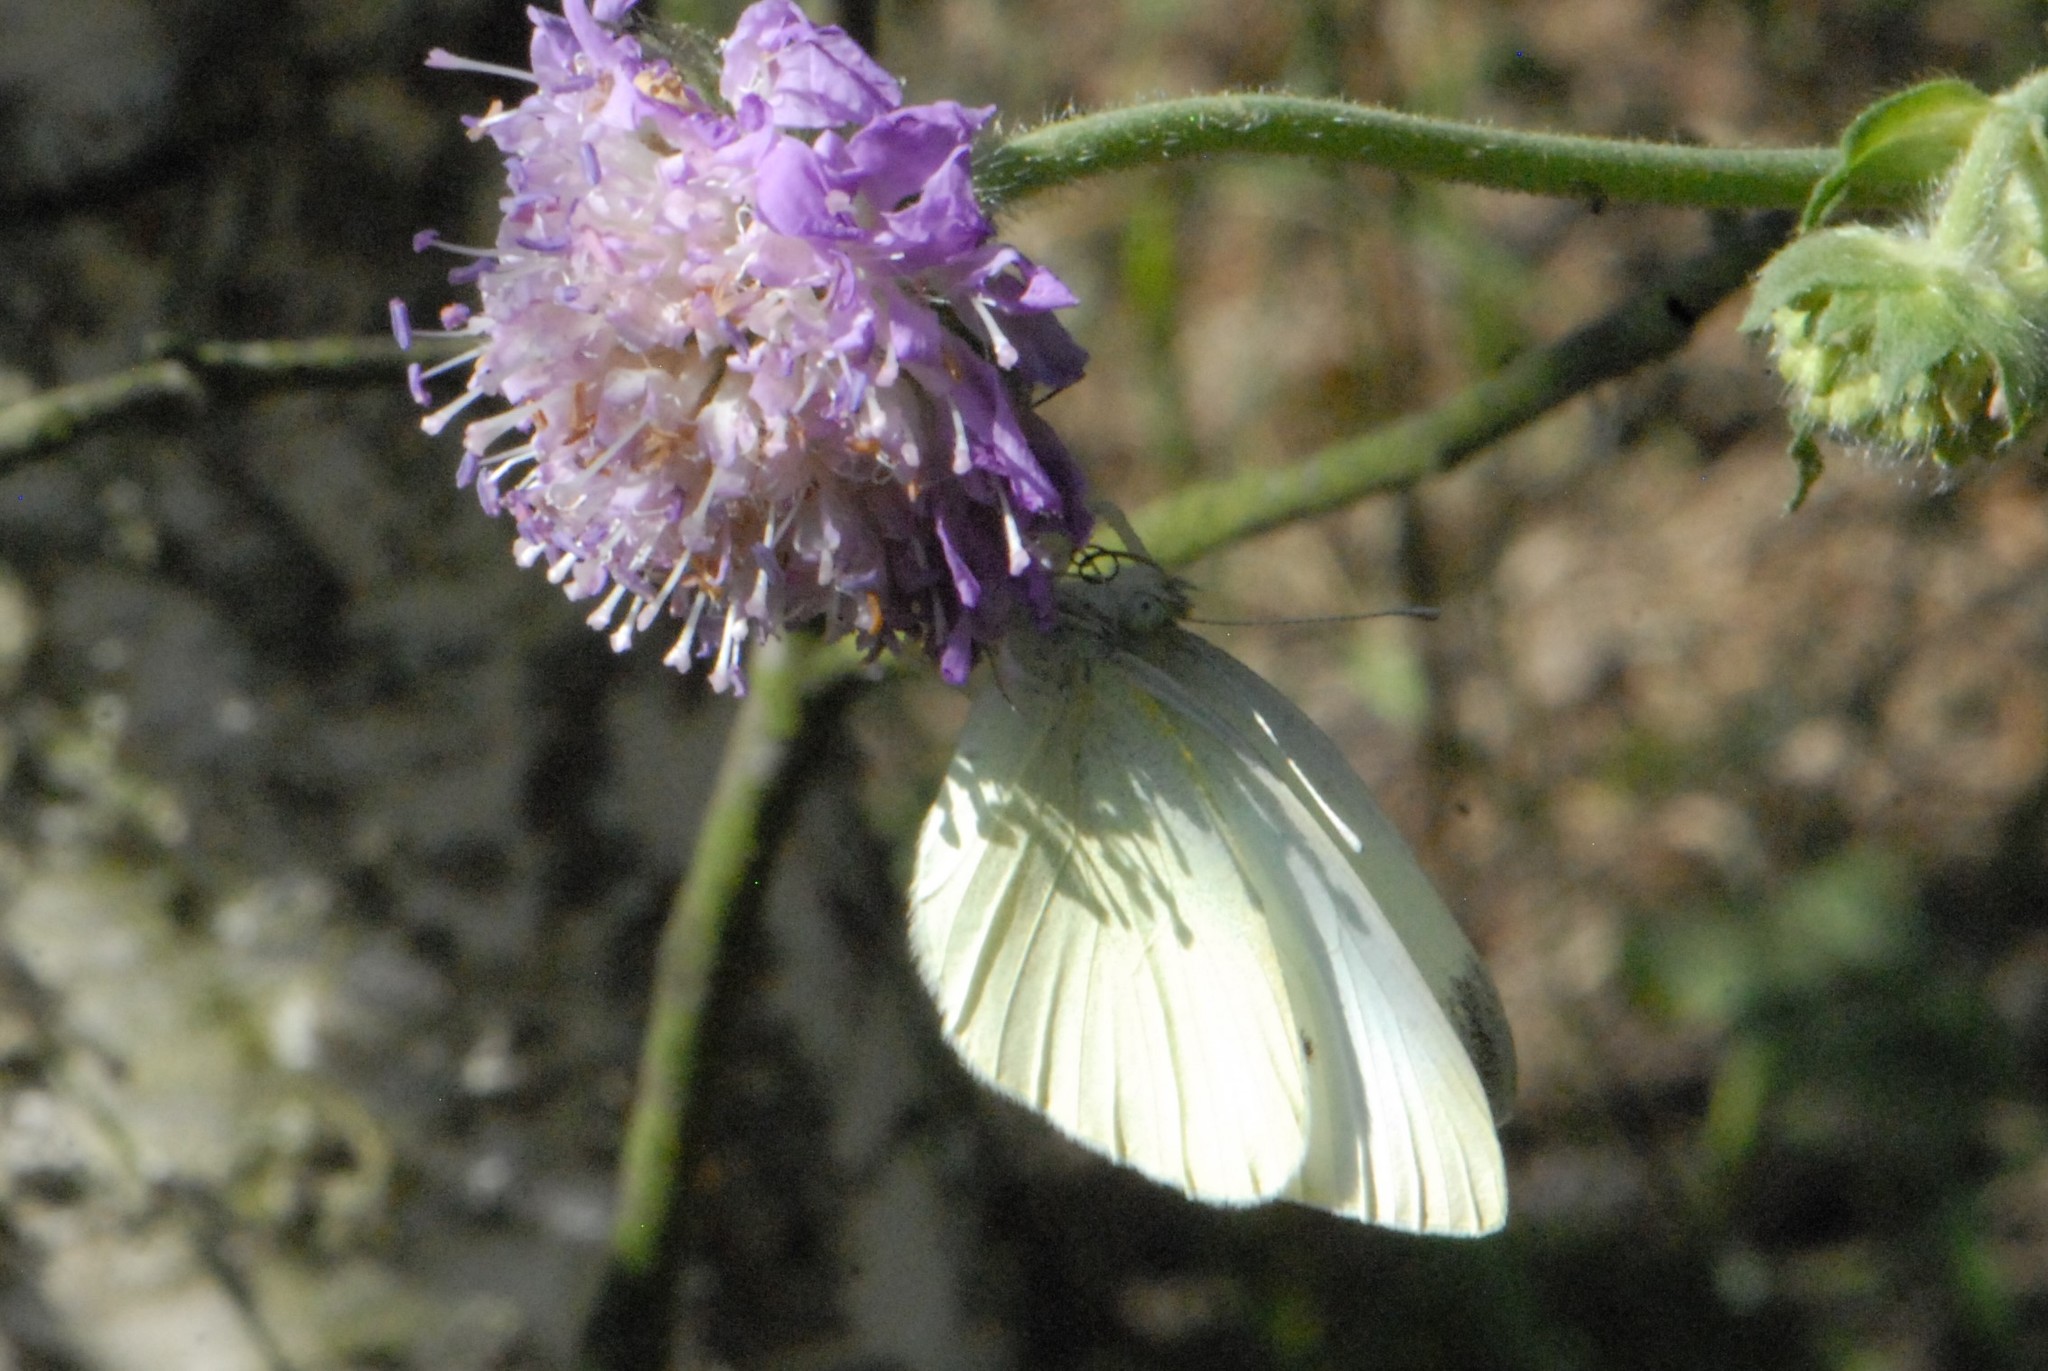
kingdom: Animalia
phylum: Arthropoda
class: Insecta
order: Lepidoptera
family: Pieridae
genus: Pieris
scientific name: Pieris rapae
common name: Small white
